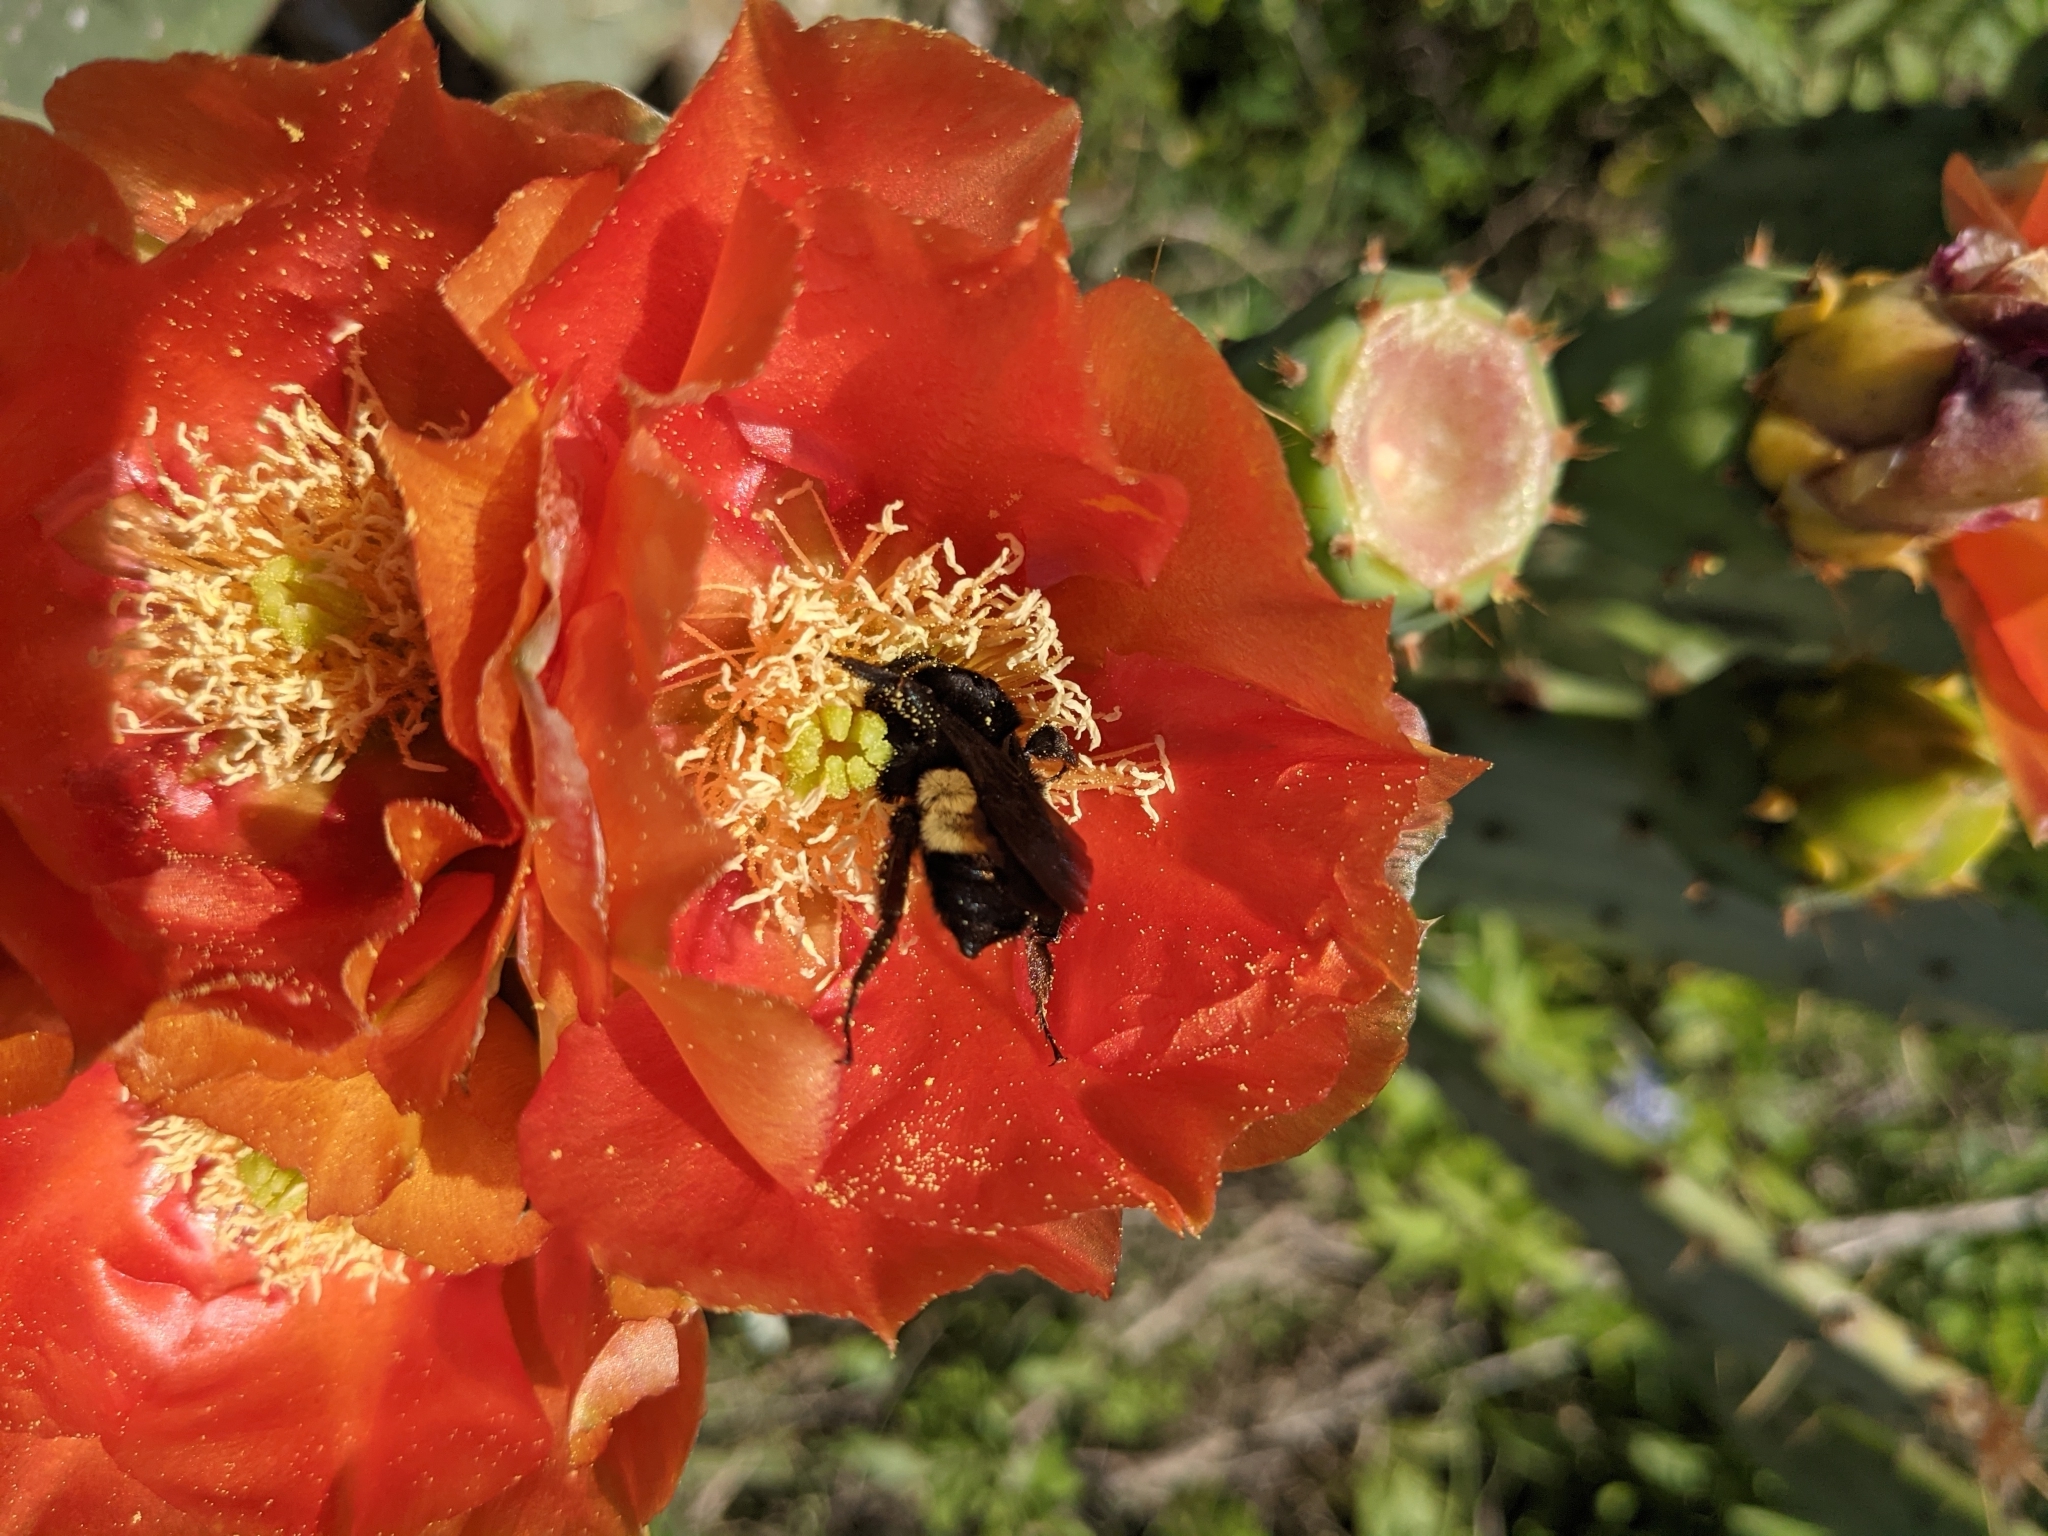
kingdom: Animalia
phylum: Arthropoda
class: Insecta
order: Hymenoptera
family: Apidae
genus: Bombus
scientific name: Bombus pensylvanicus
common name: Bumble bee
